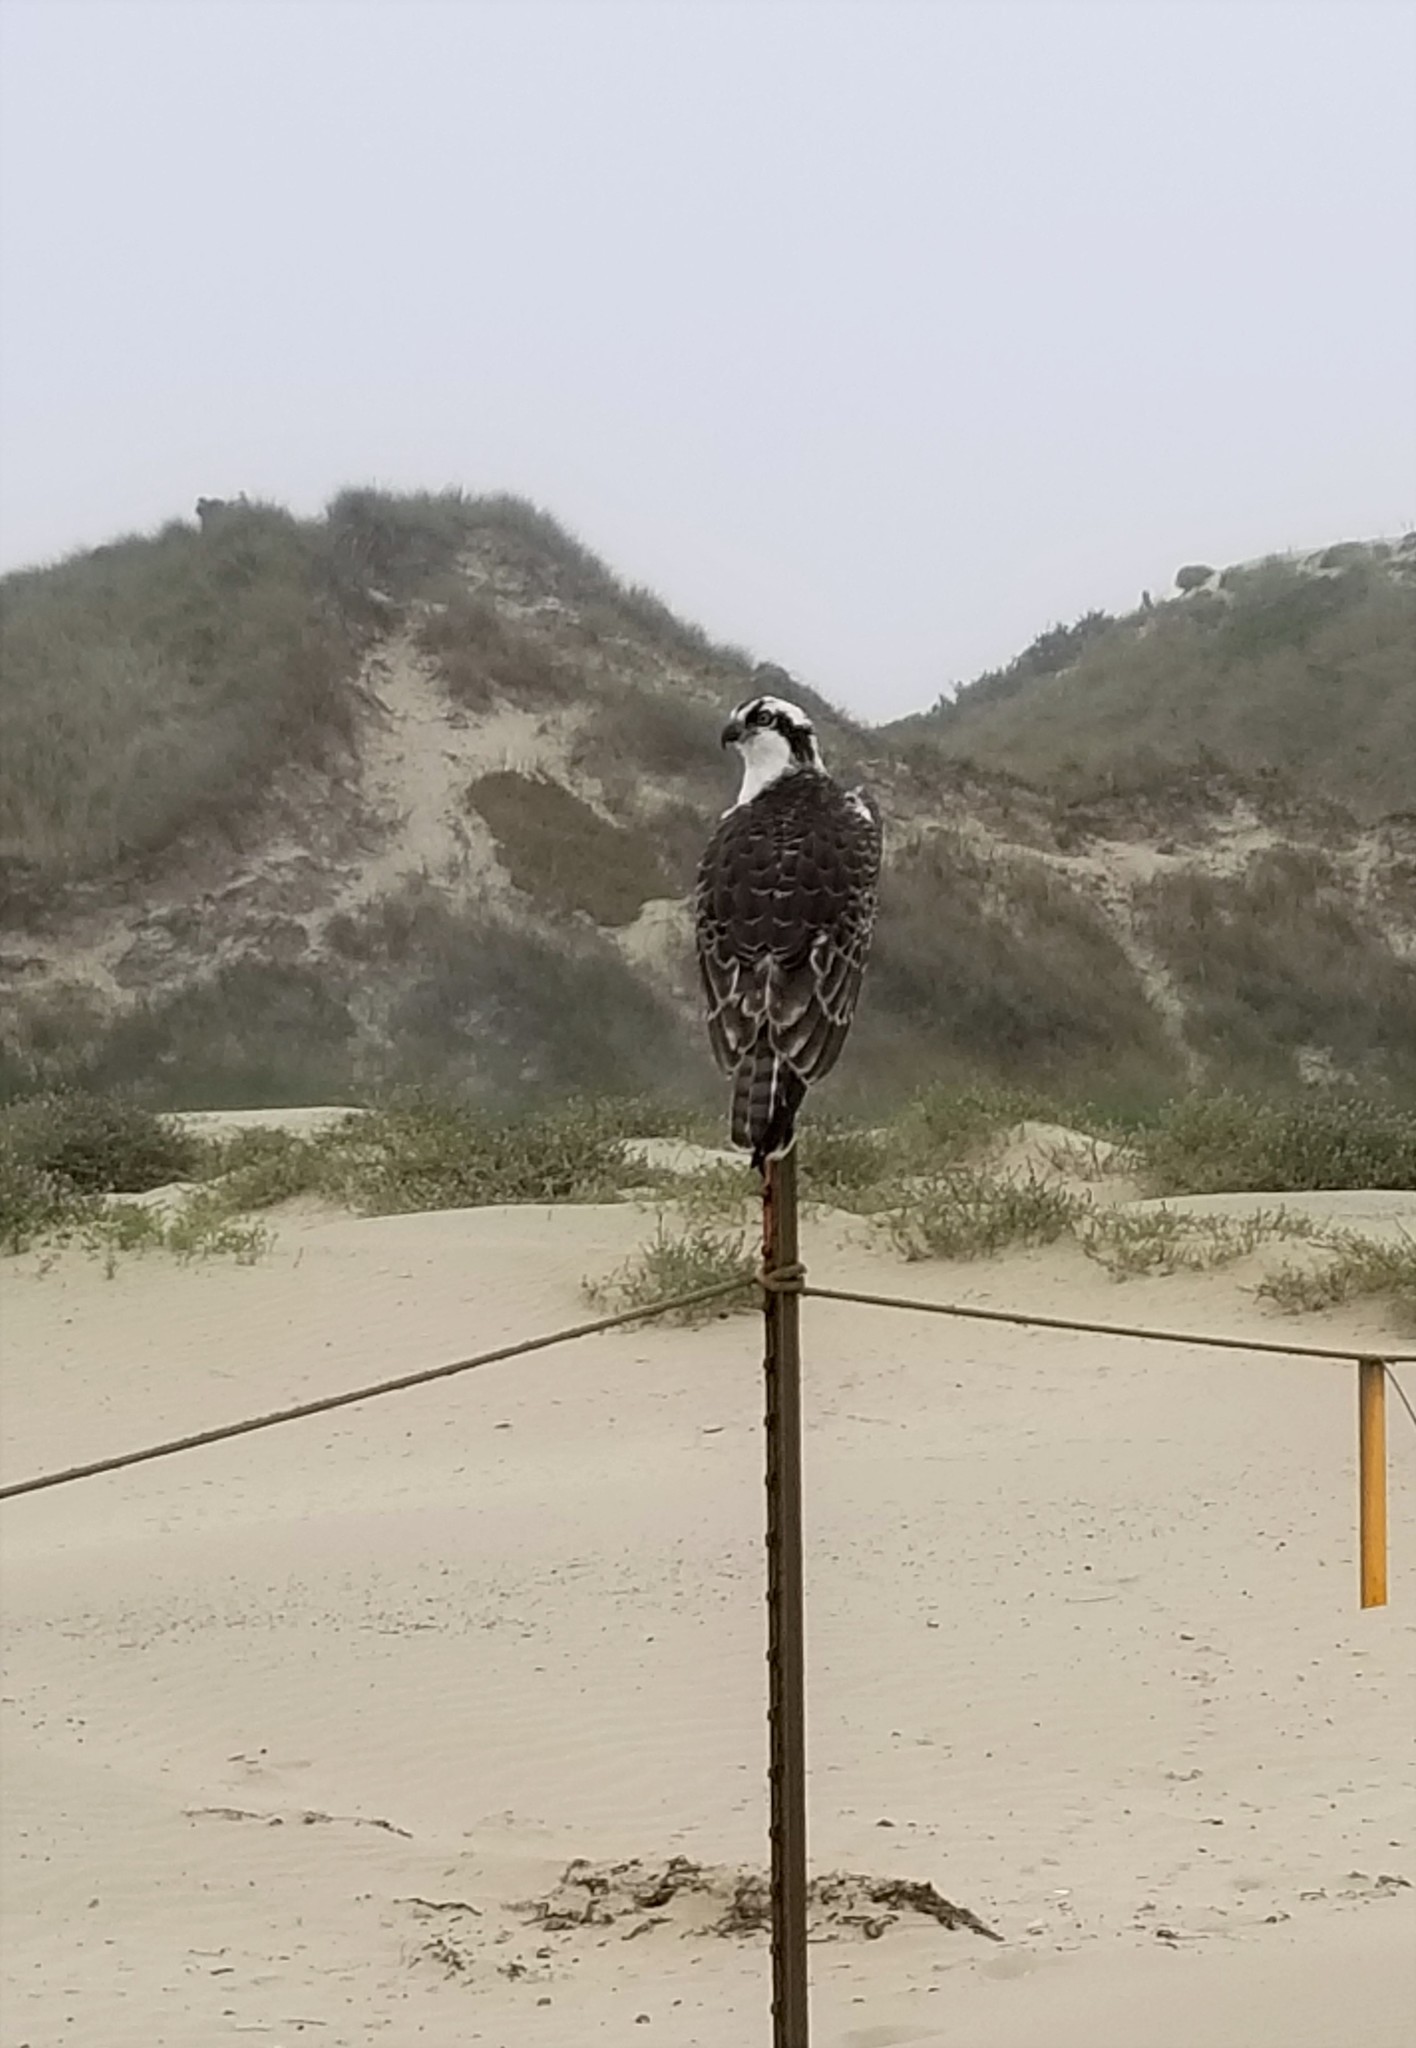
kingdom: Animalia
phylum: Chordata
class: Aves
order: Accipitriformes
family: Pandionidae
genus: Pandion
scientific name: Pandion haliaetus
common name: Osprey
